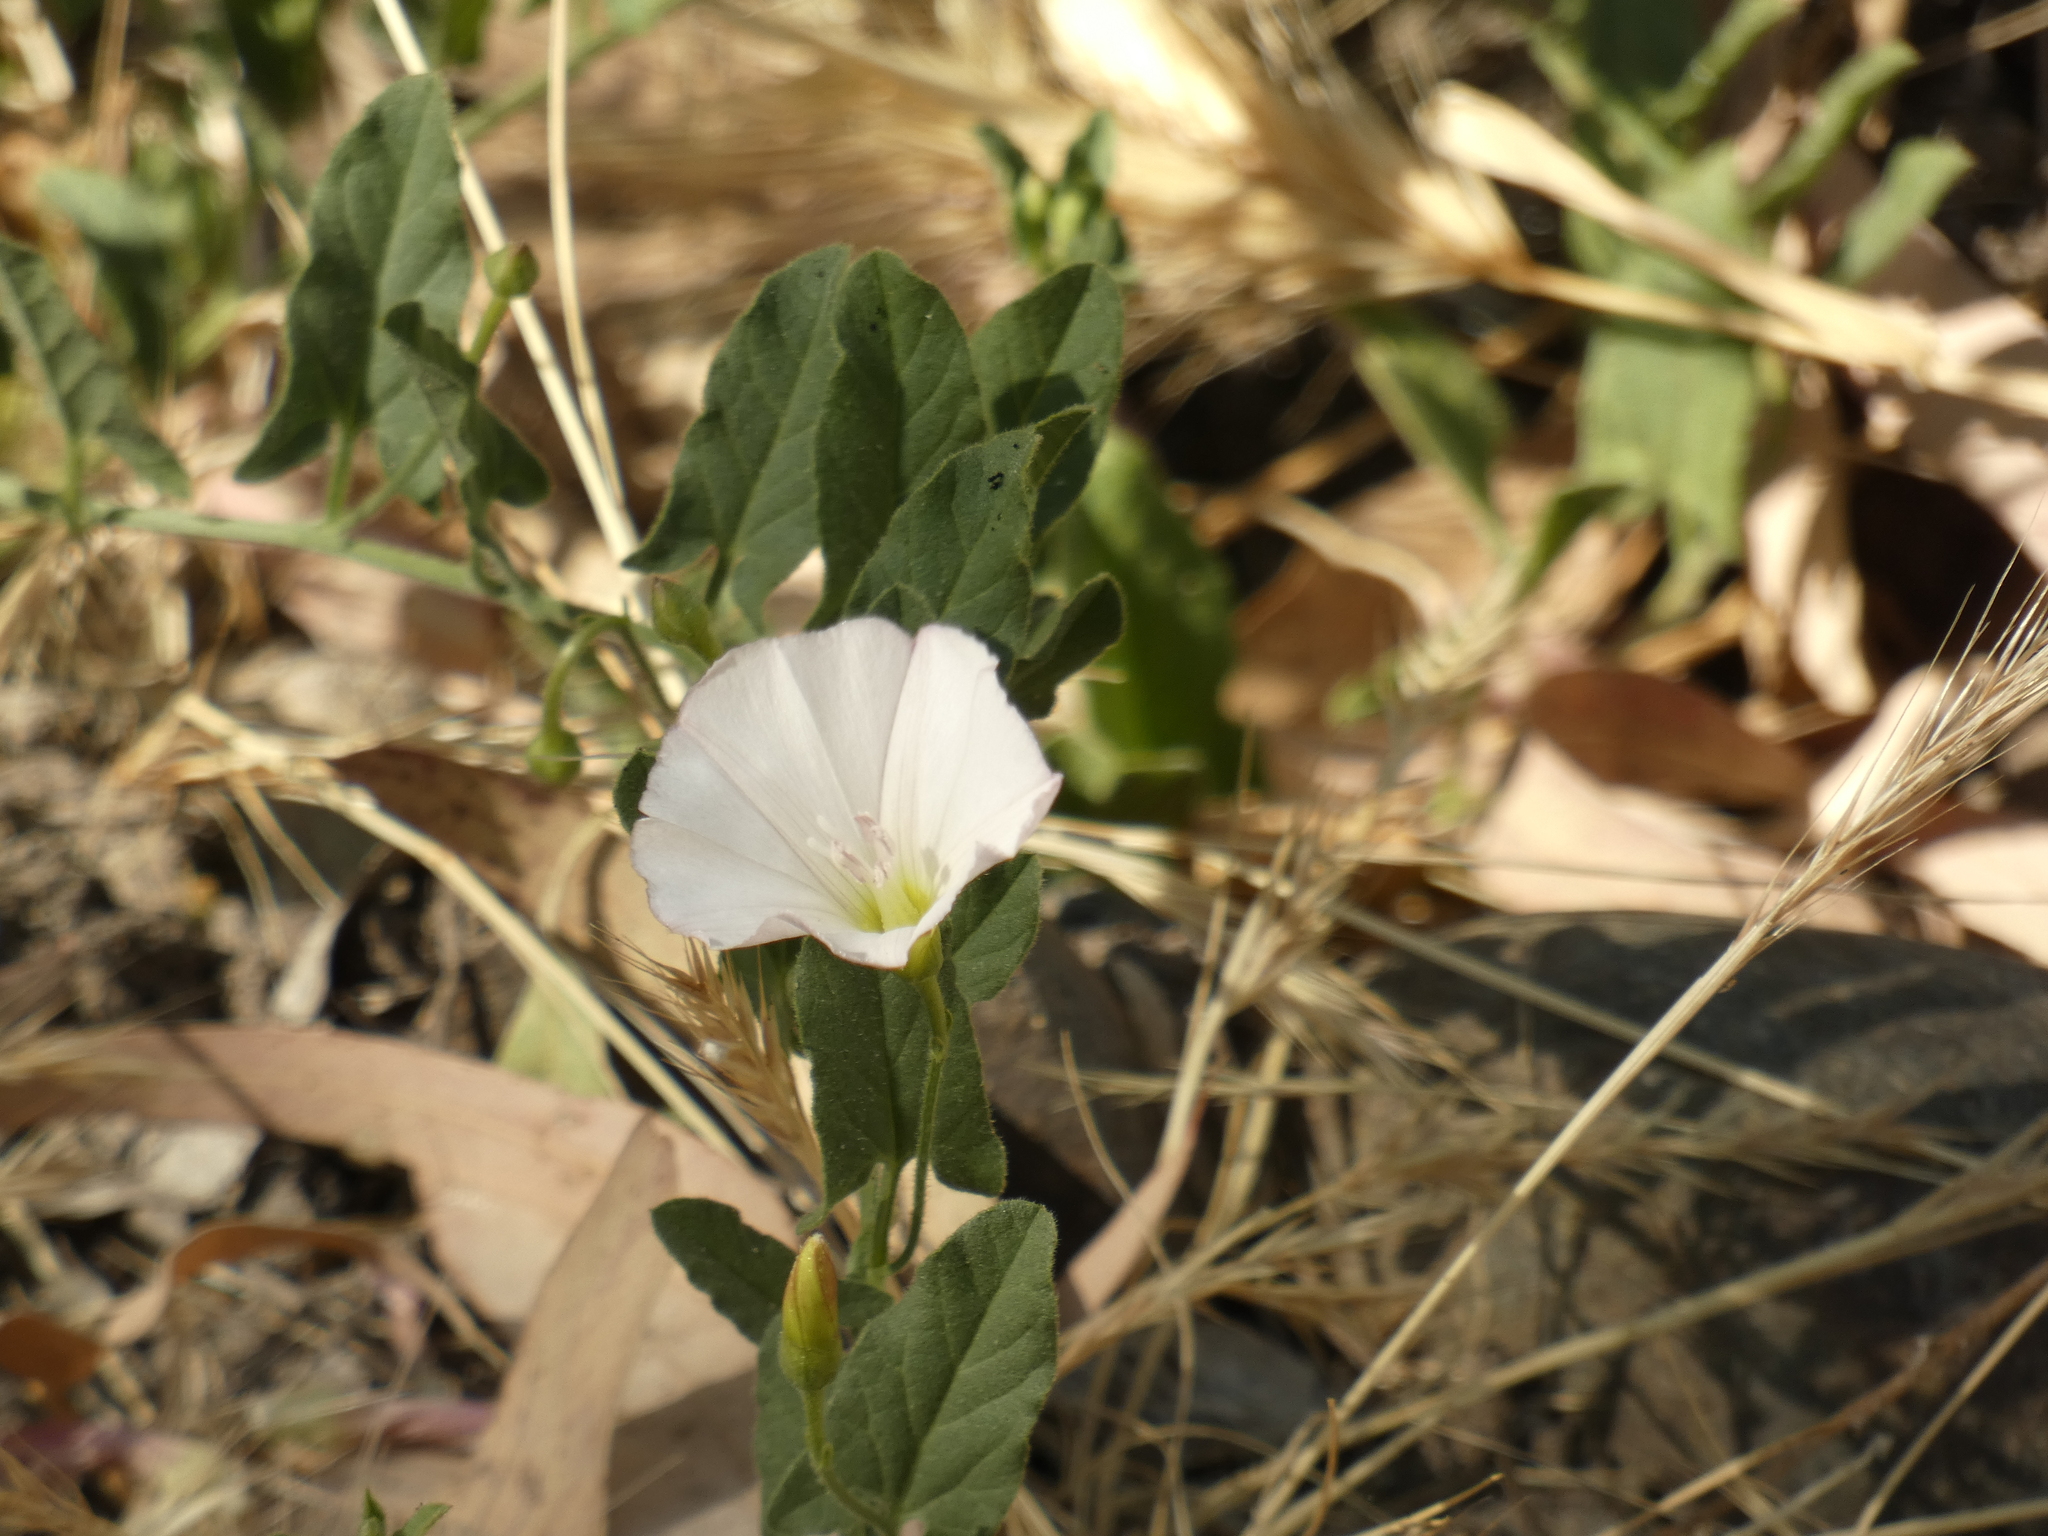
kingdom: Plantae
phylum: Tracheophyta
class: Magnoliopsida
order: Solanales
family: Convolvulaceae
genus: Convolvulus
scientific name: Convolvulus arvensis
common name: Field bindweed
